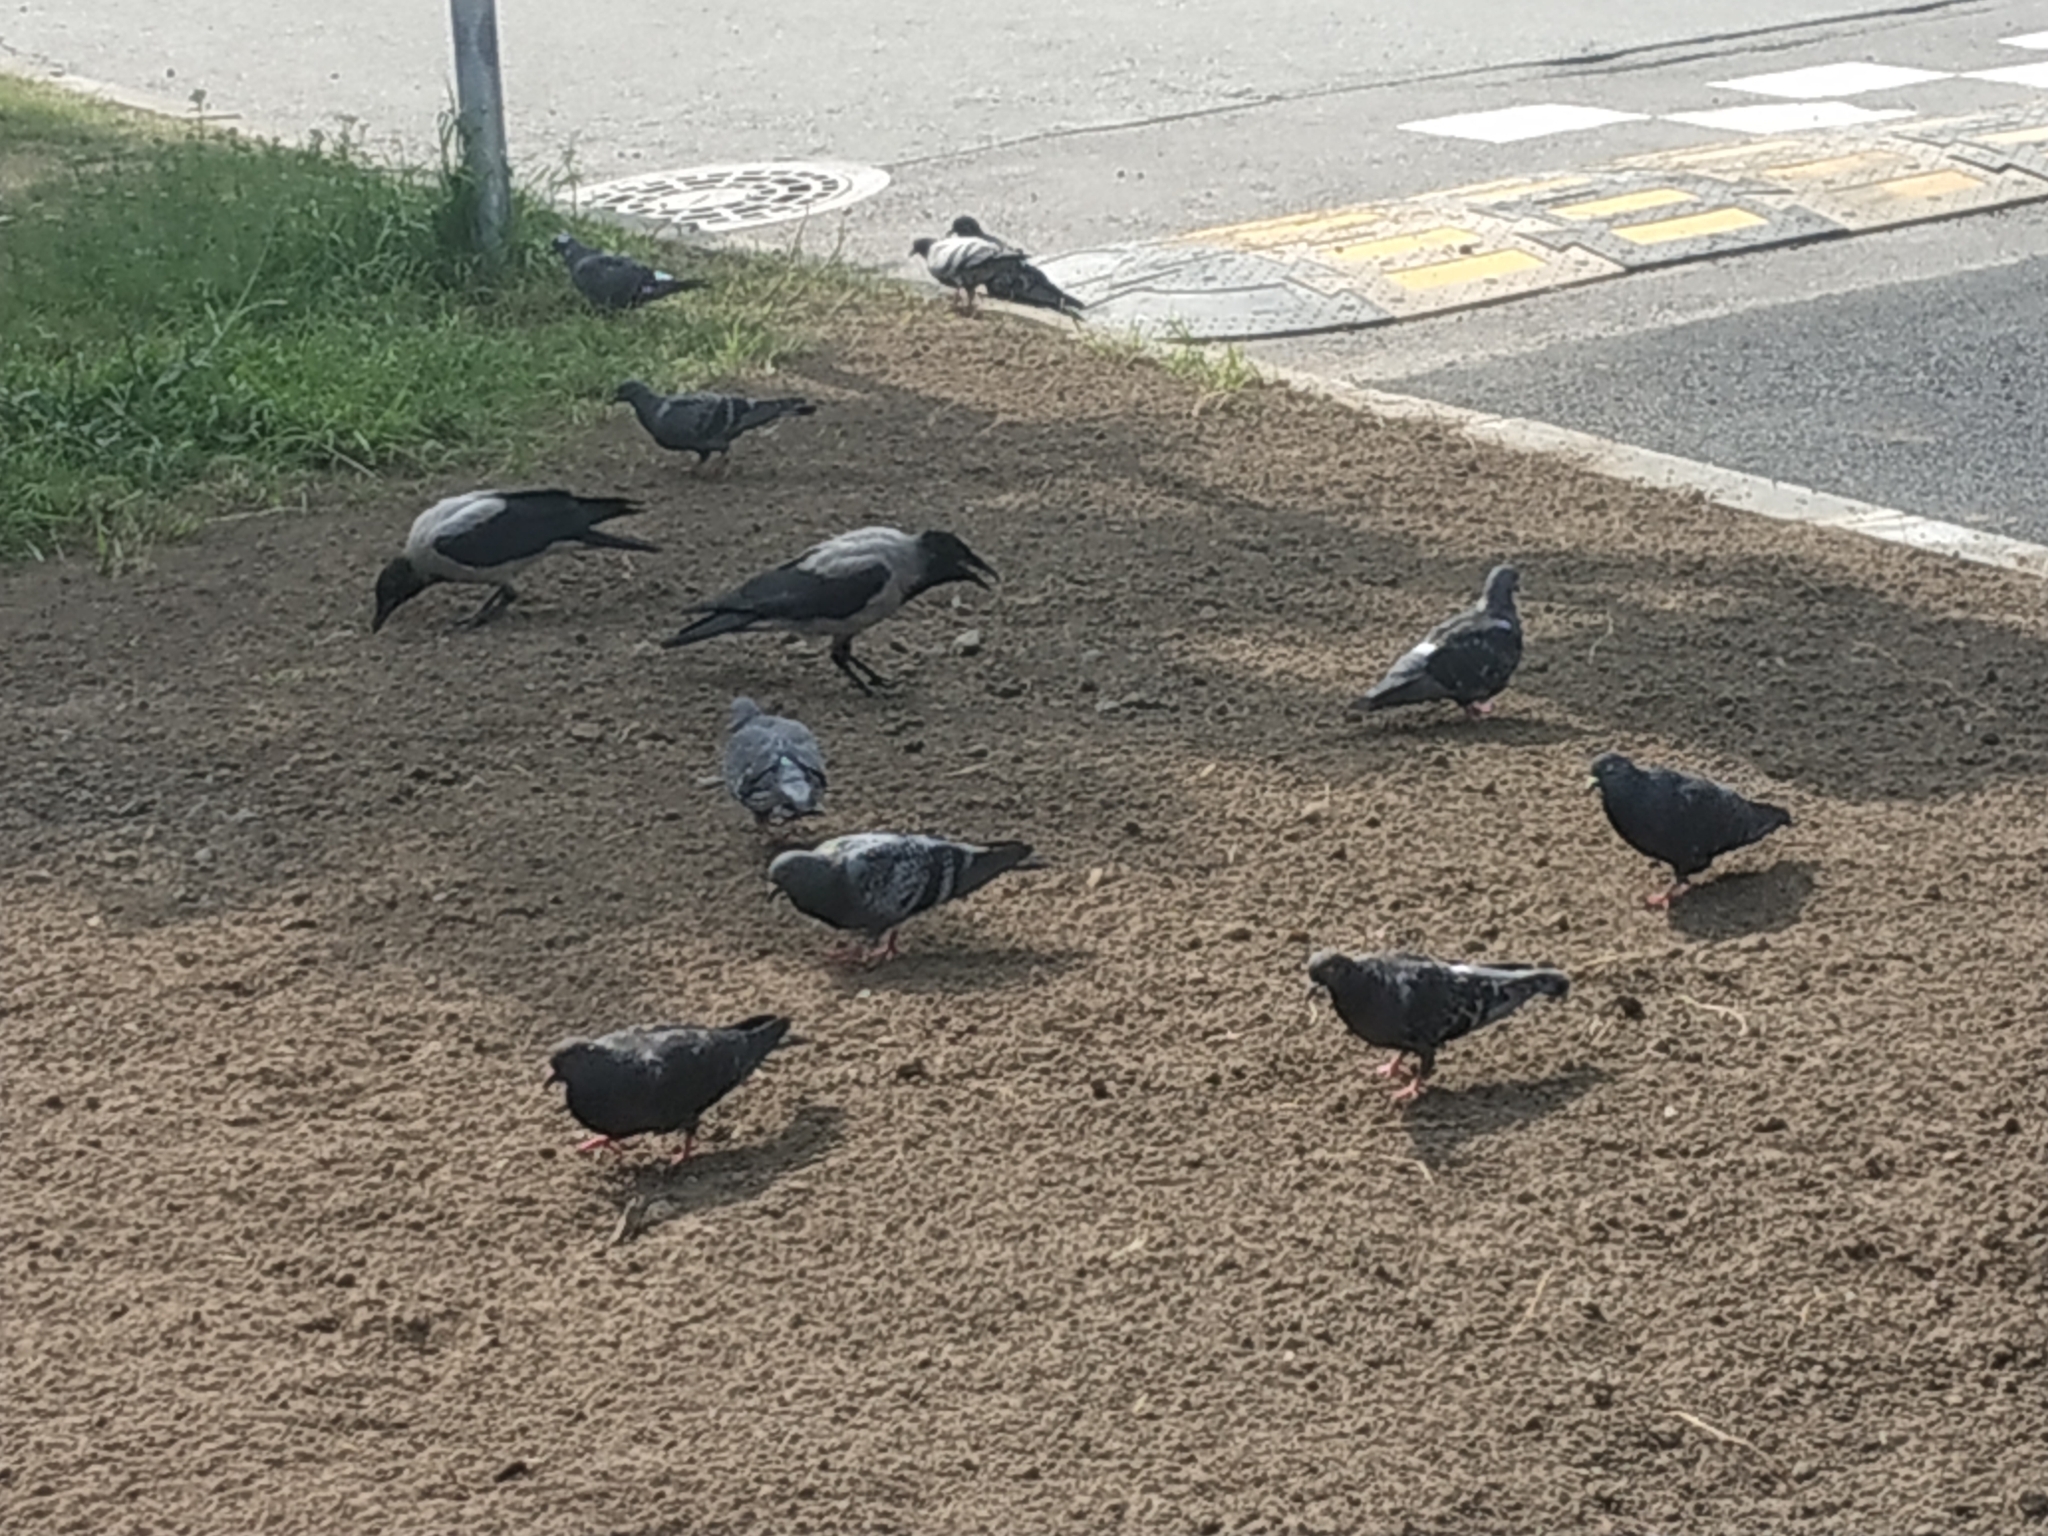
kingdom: Animalia
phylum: Chordata
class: Aves
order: Passeriformes
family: Corvidae
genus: Corvus
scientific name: Corvus cornix
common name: Hooded crow
